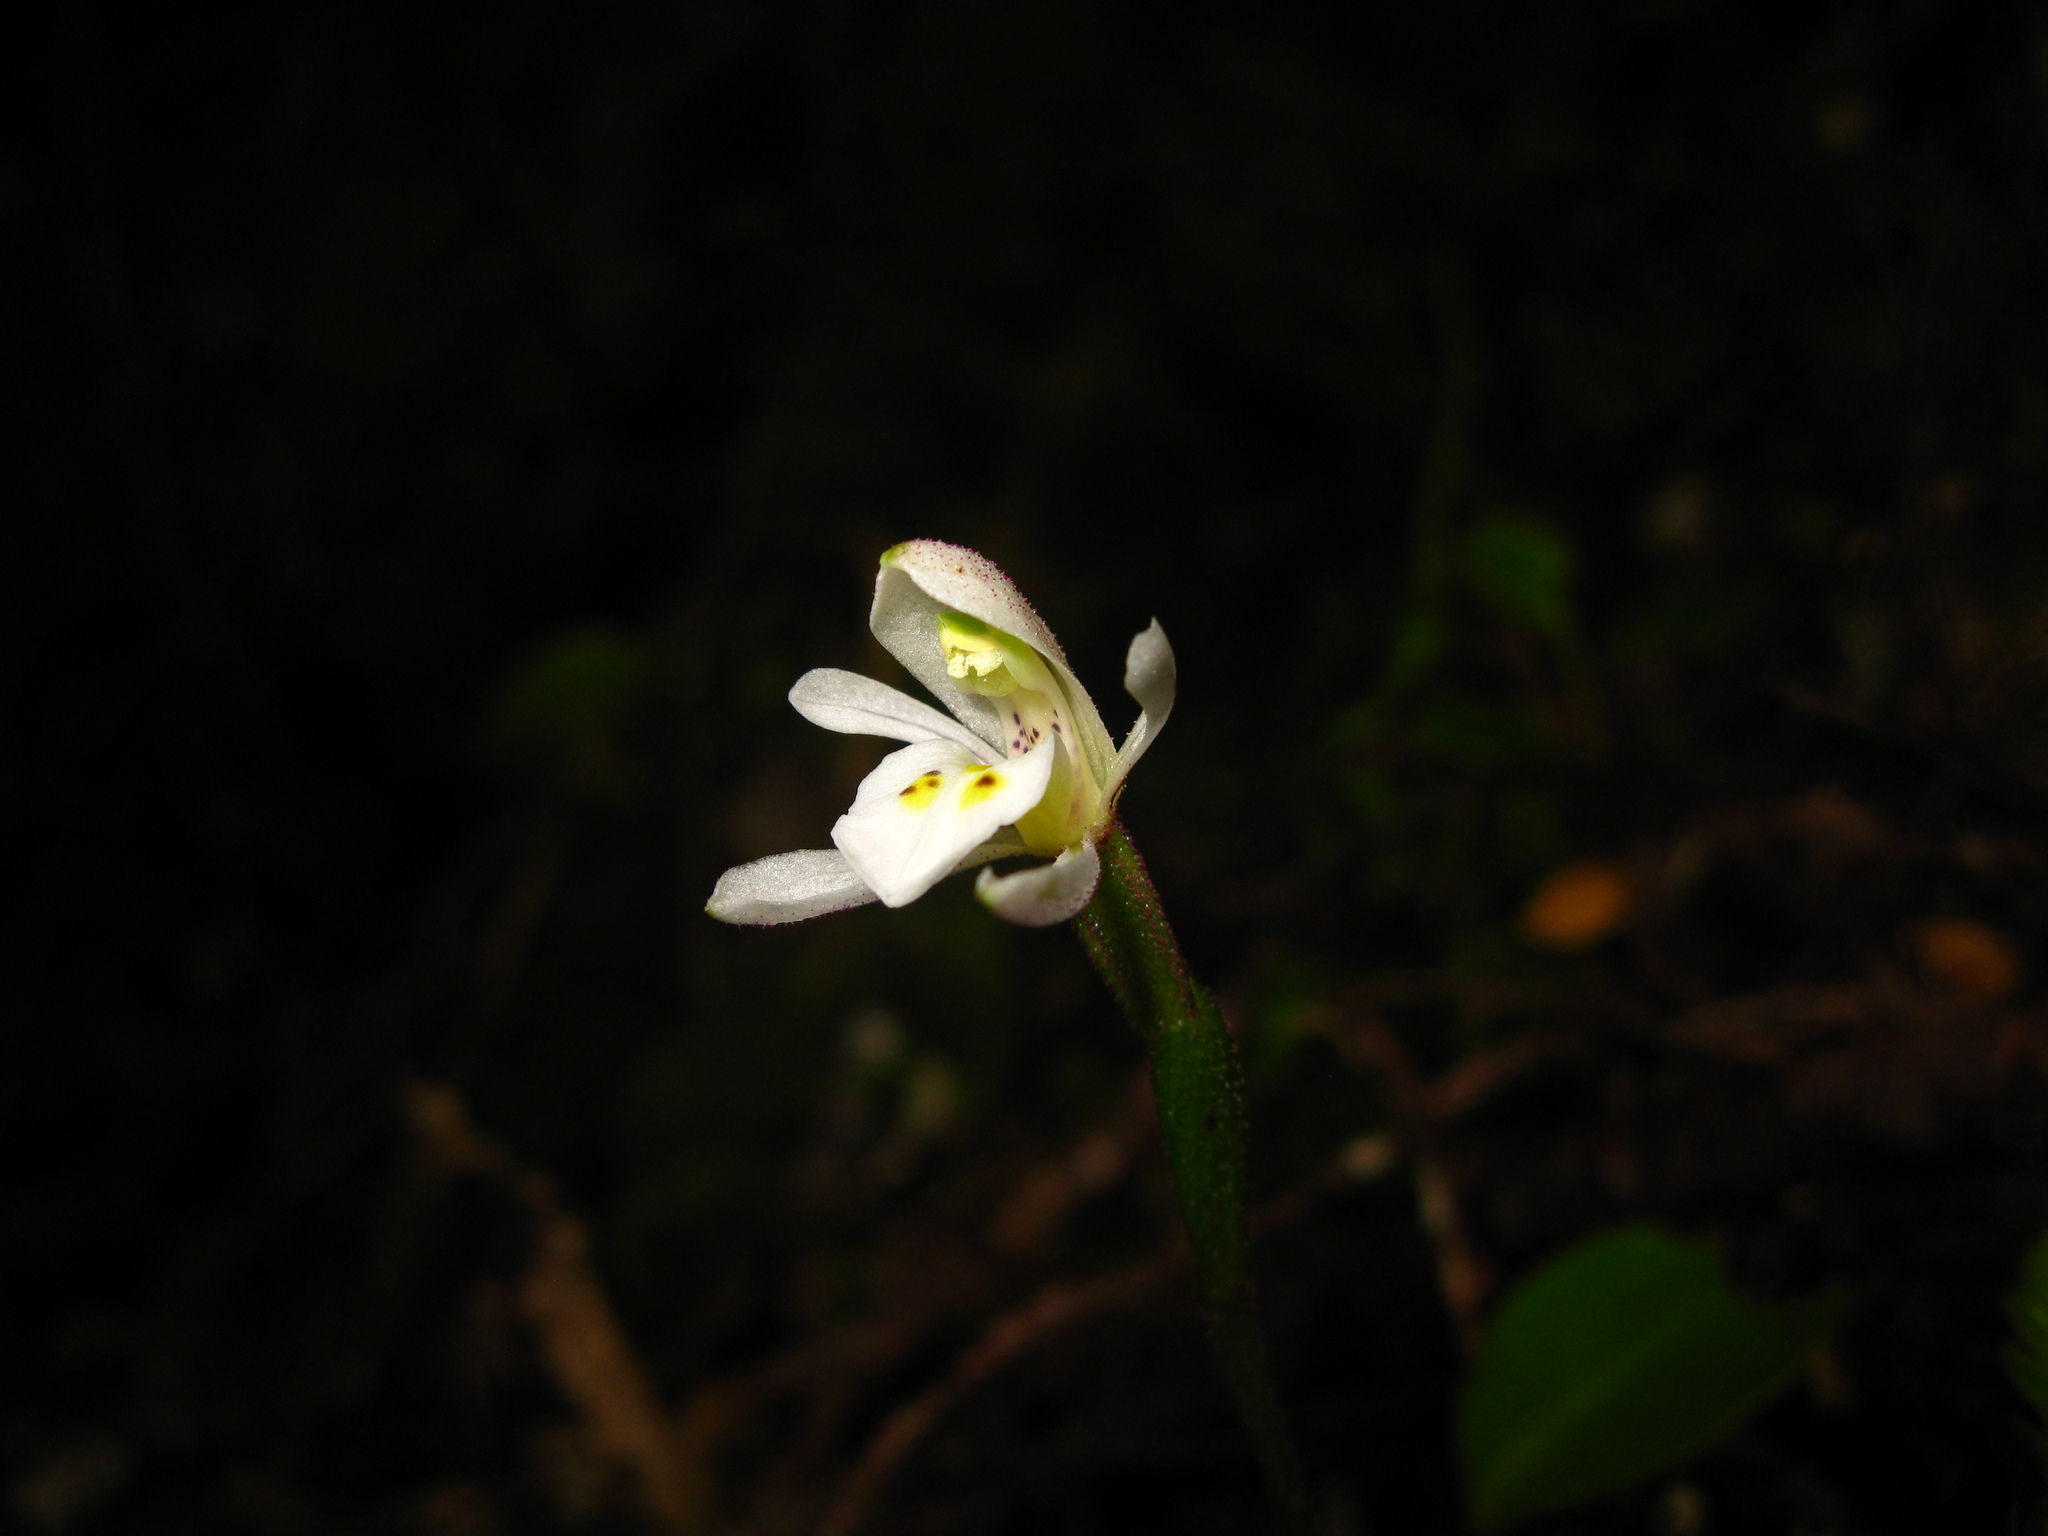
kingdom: Plantae
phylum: Tracheophyta
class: Liliopsida
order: Asparagales
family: Orchidaceae
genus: Aporostylis
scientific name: Aporostylis bifolia
